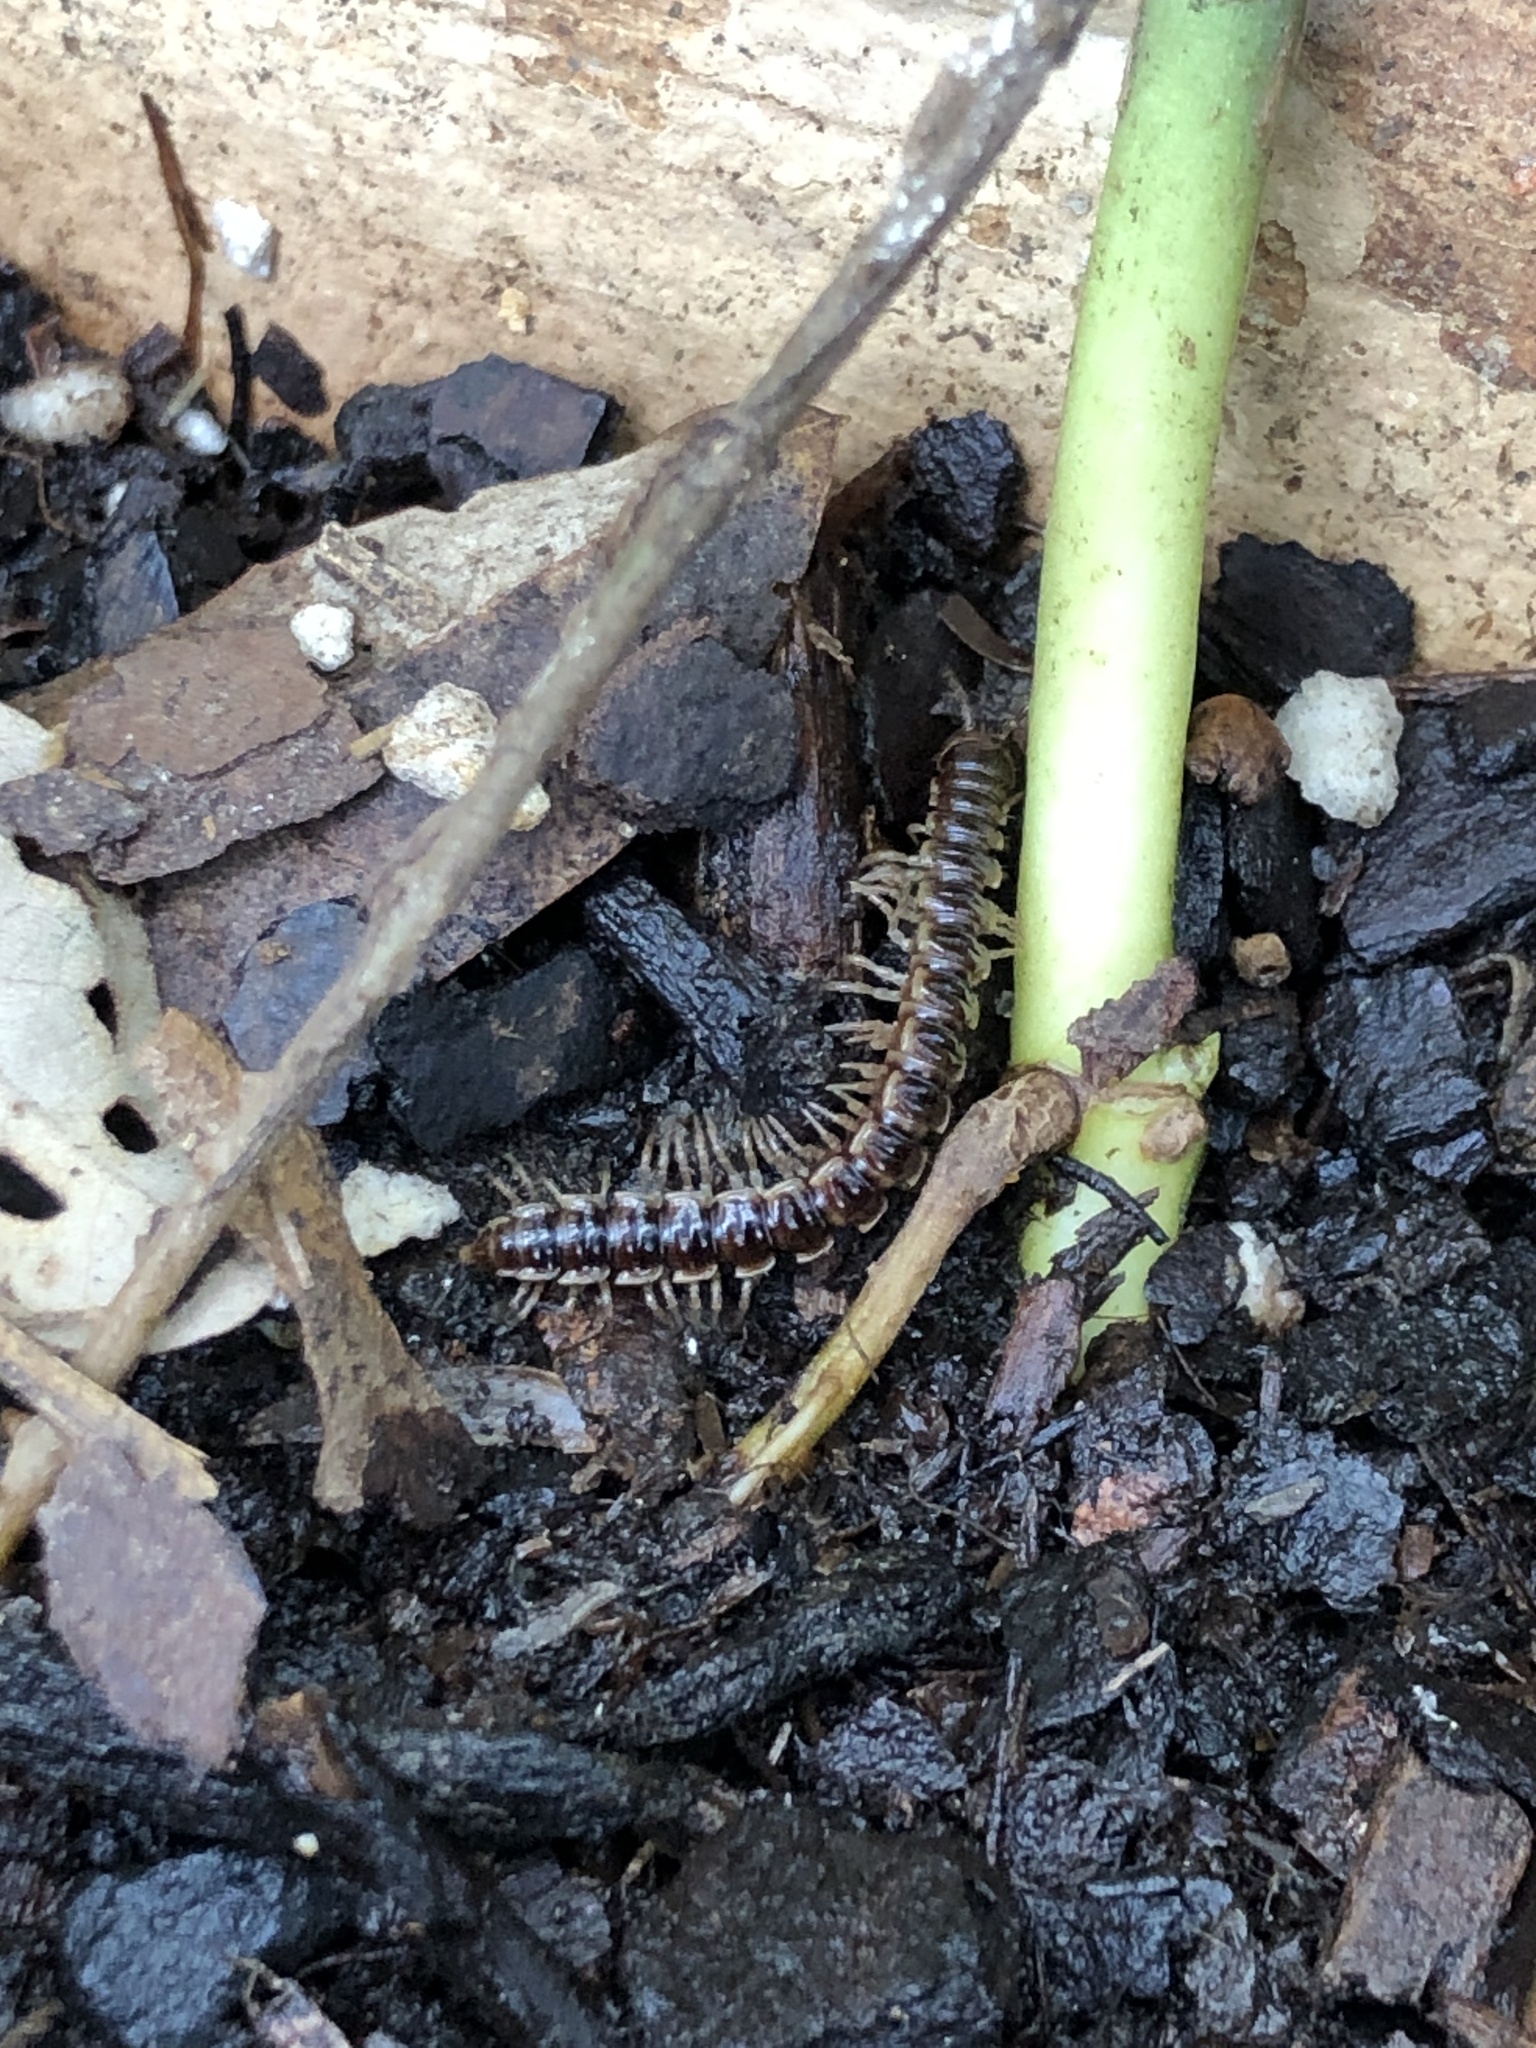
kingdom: Animalia
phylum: Arthropoda
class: Diplopoda
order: Polydesmida
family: Paradoxosomatidae
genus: Oxidus
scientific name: Oxidus gracilis
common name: Greenhouse millipede
